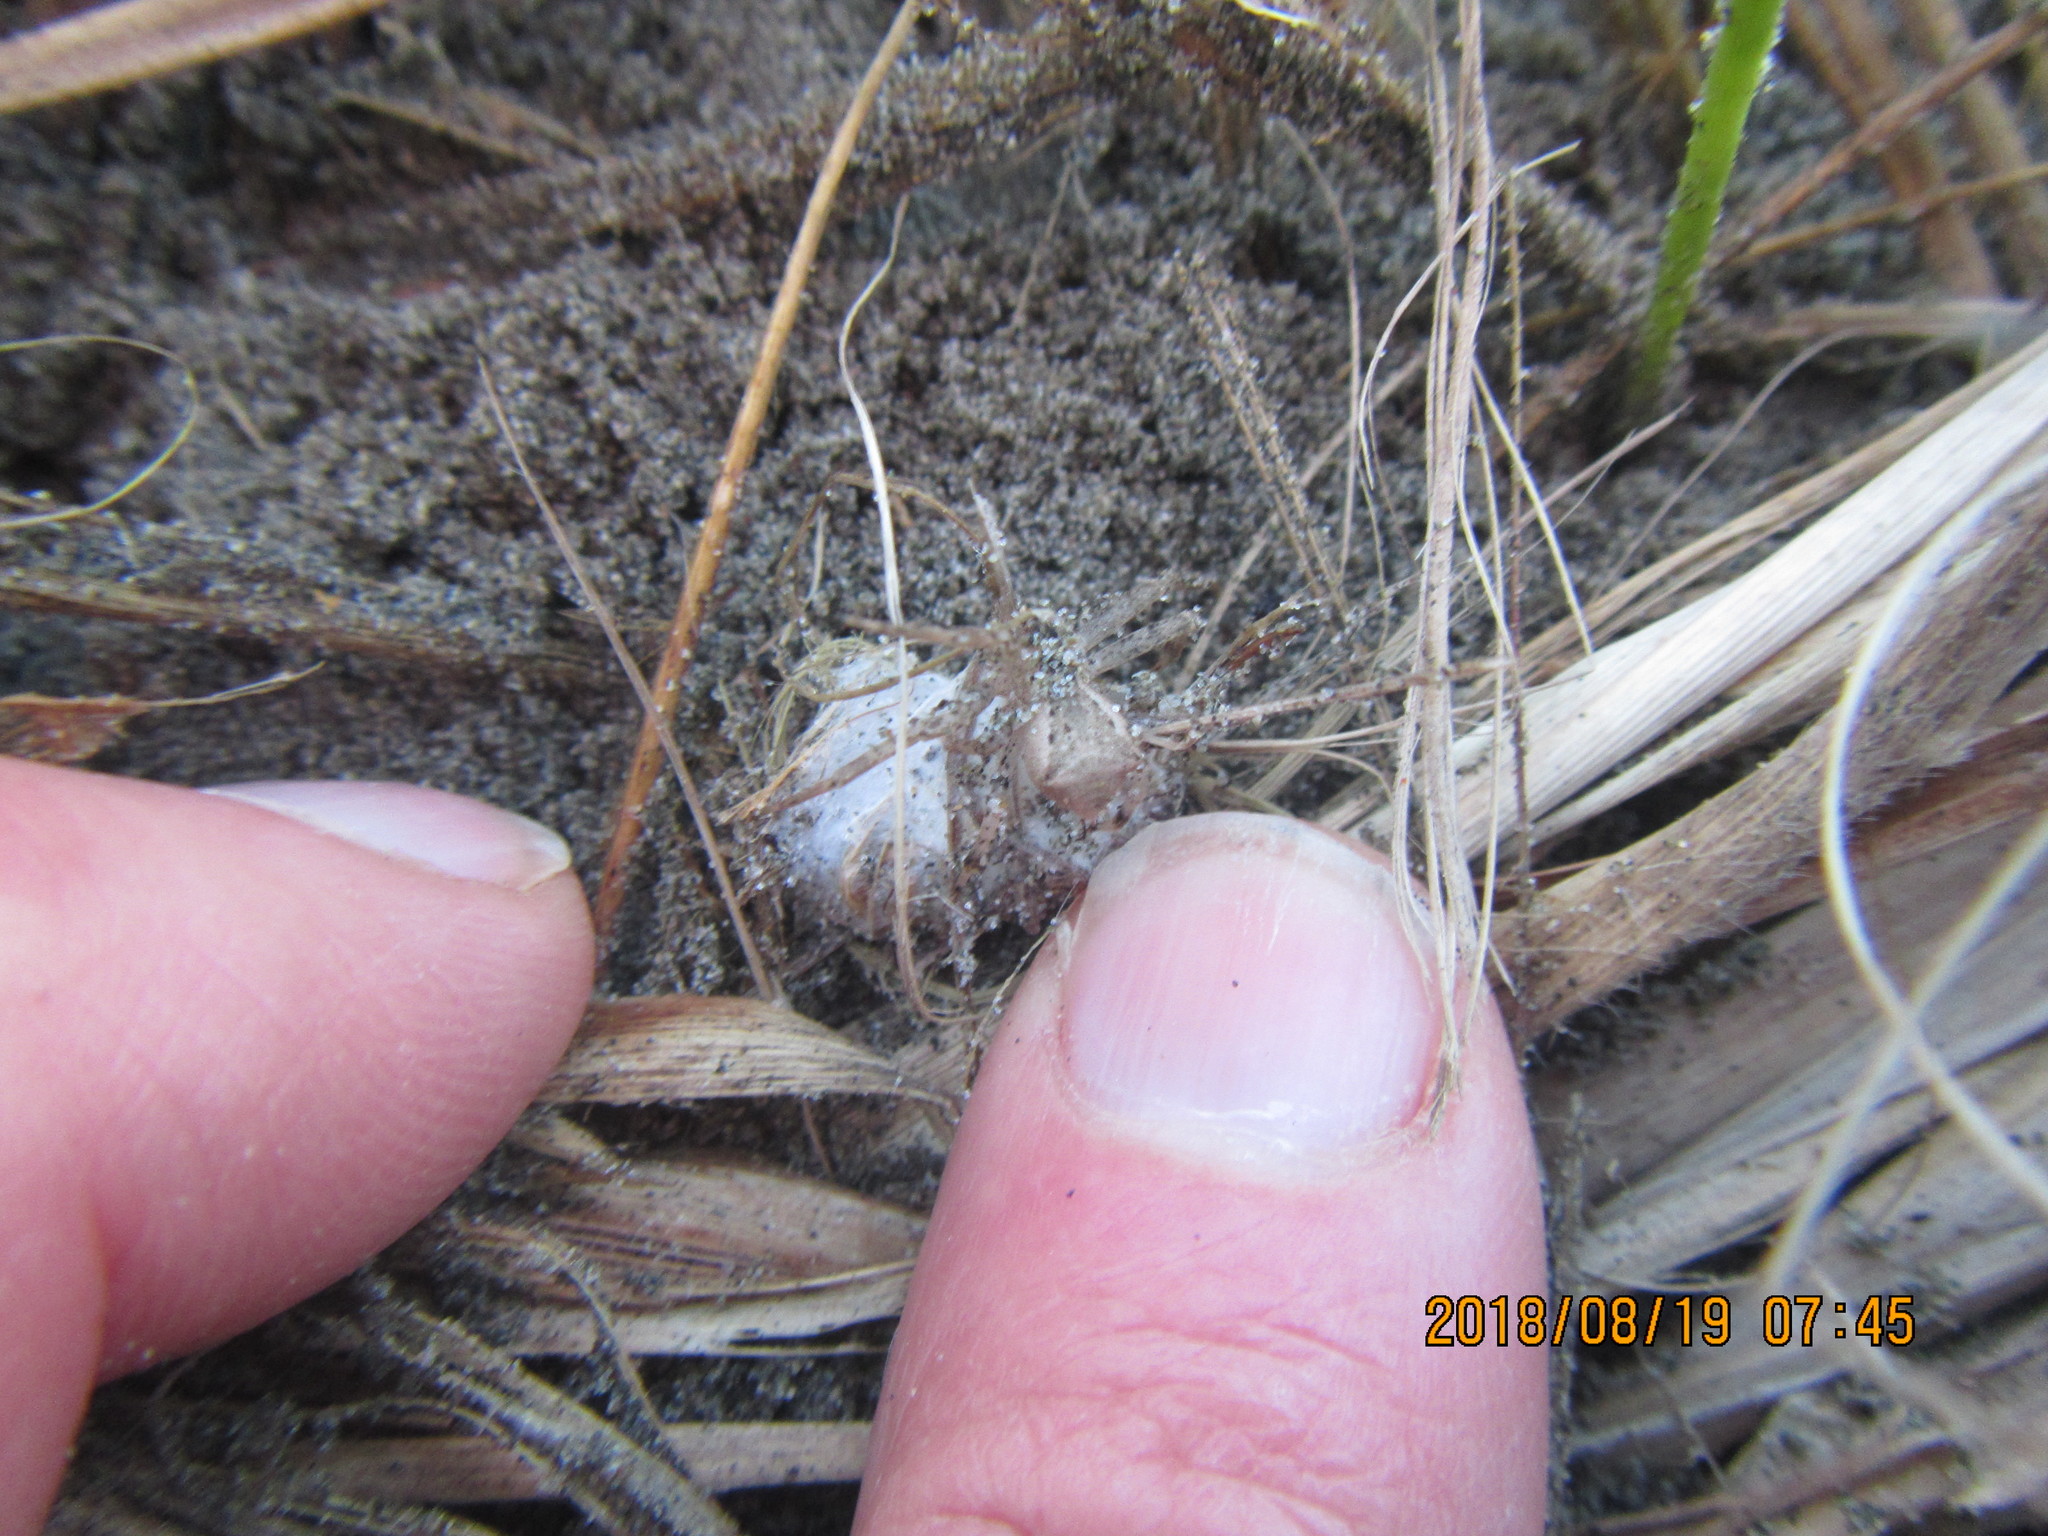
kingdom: Animalia
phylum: Arthropoda
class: Arachnida
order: Araneae
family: Thomisidae
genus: Sidymella
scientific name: Sidymella trapezia
